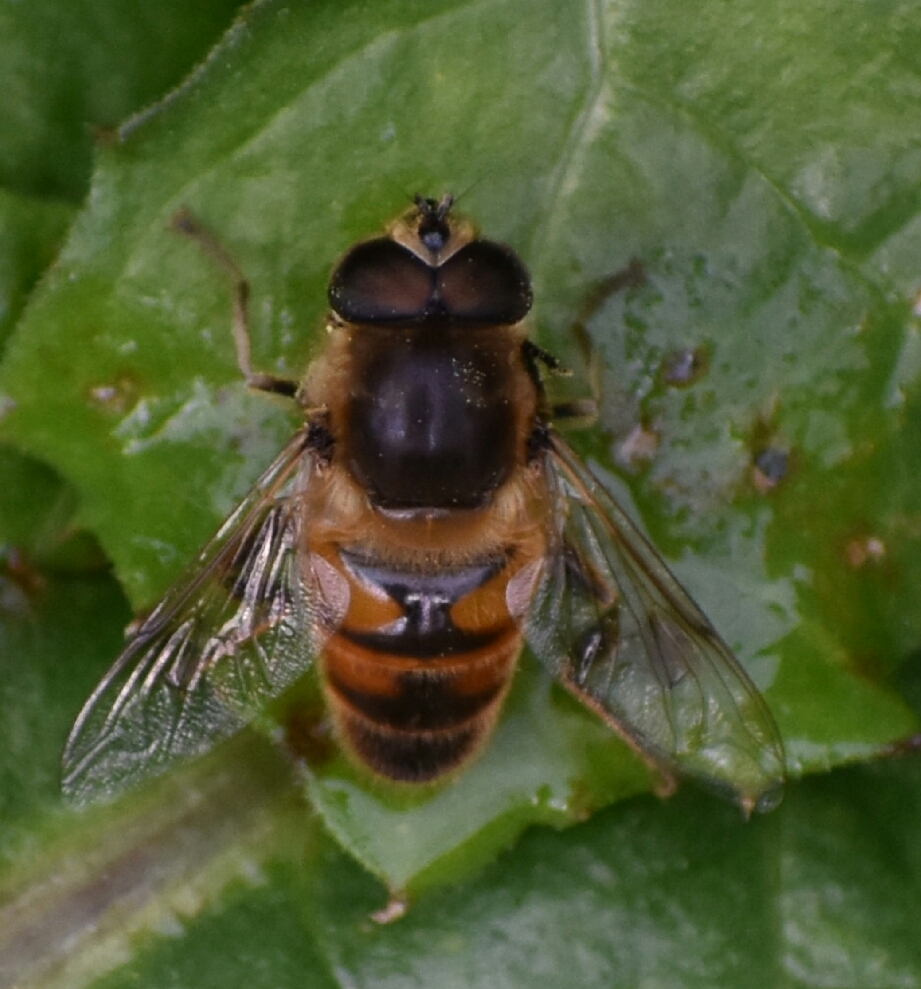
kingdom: Animalia
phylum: Arthropoda
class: Insecta
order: Diptera
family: Syrphidae
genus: Eristalis
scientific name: Eristalis tenax
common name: Drone fly
